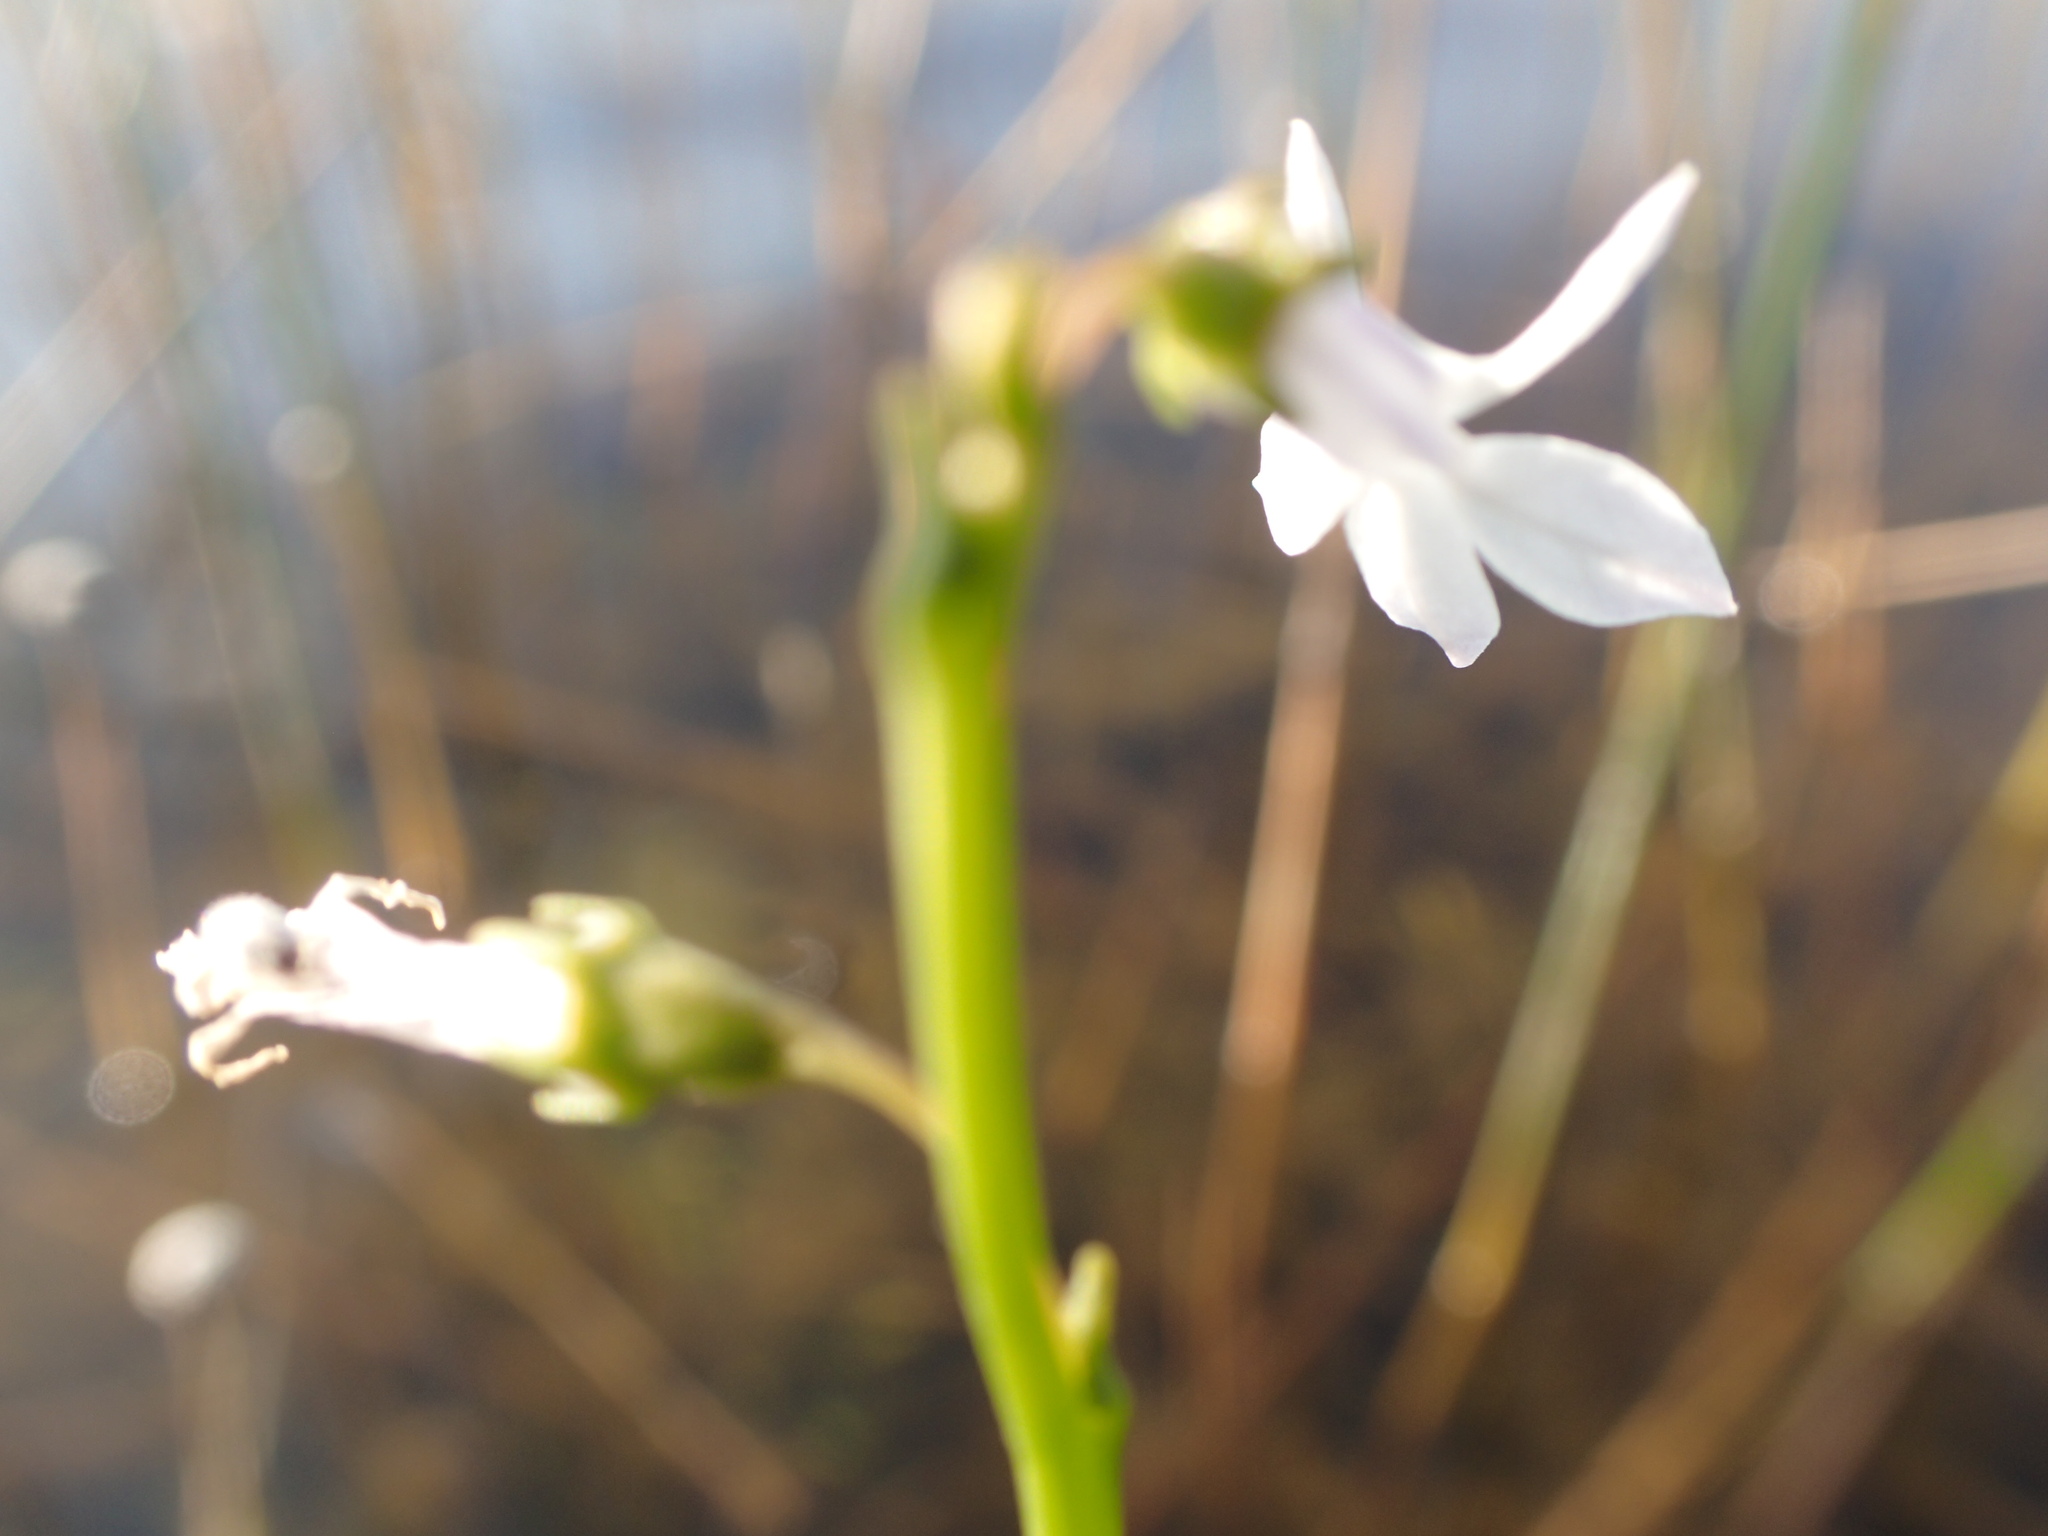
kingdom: Plantae
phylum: Tracheophyta
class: Magnoliopsida
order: Asterales
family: Campanulaceae
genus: Lobelia
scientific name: Lobelia dortmanna
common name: Water lobelia
